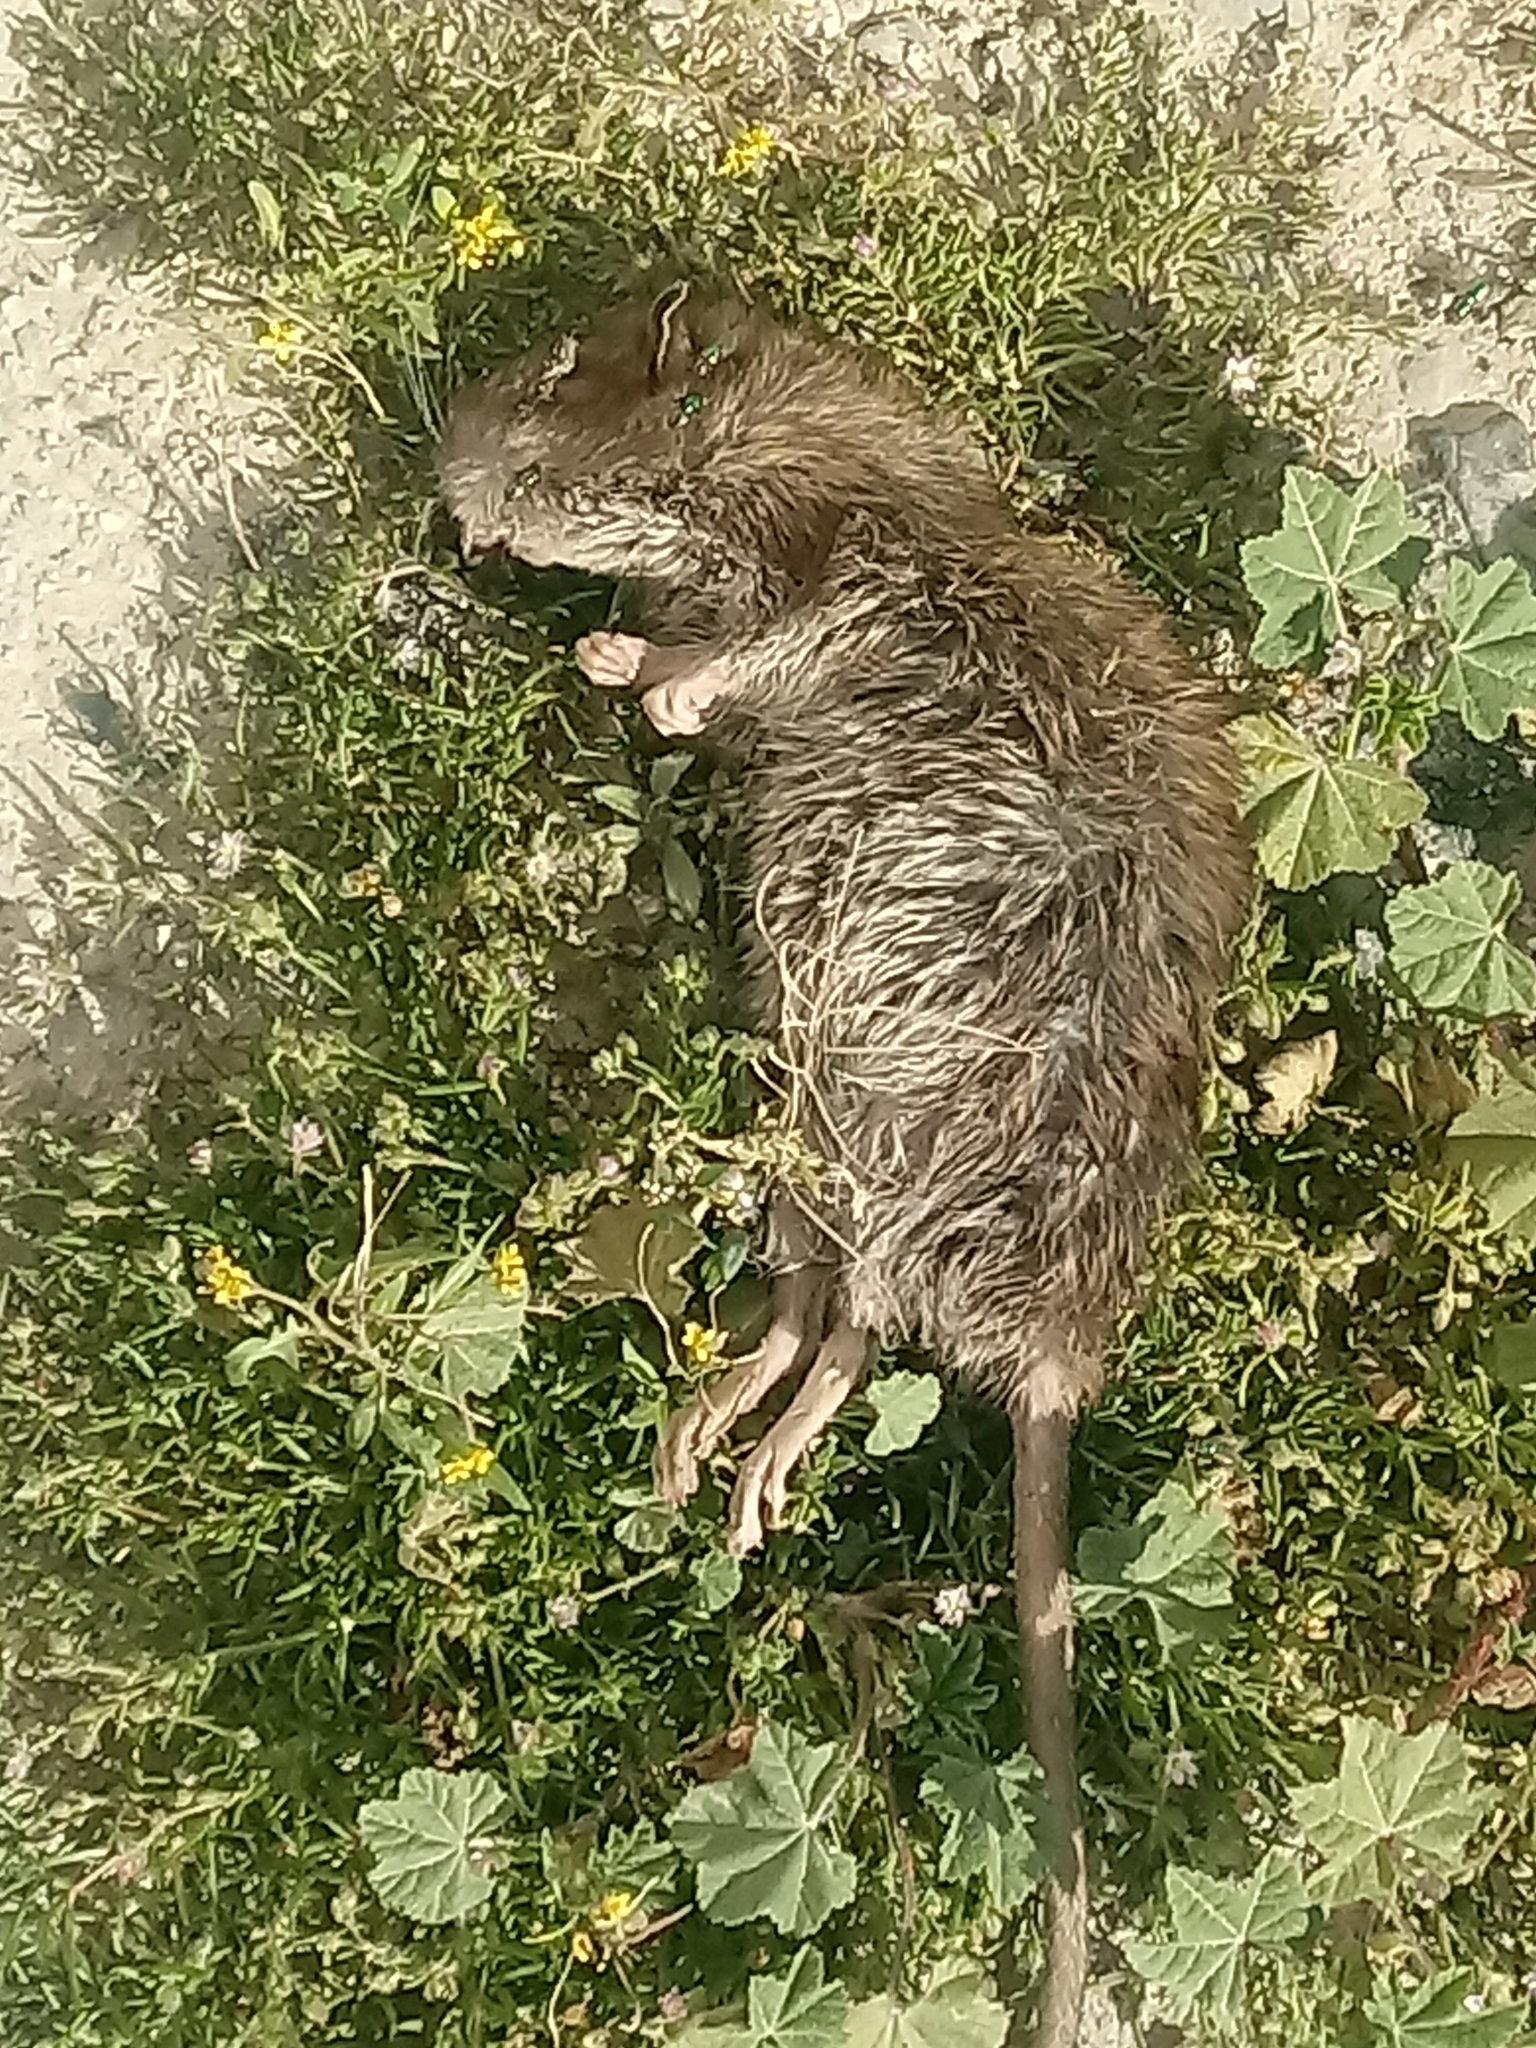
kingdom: Animalia
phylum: Chordata
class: Mammalia
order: Rodentia
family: Muridae
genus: Rattus
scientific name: Rattus norvegicus
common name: Brown rat
